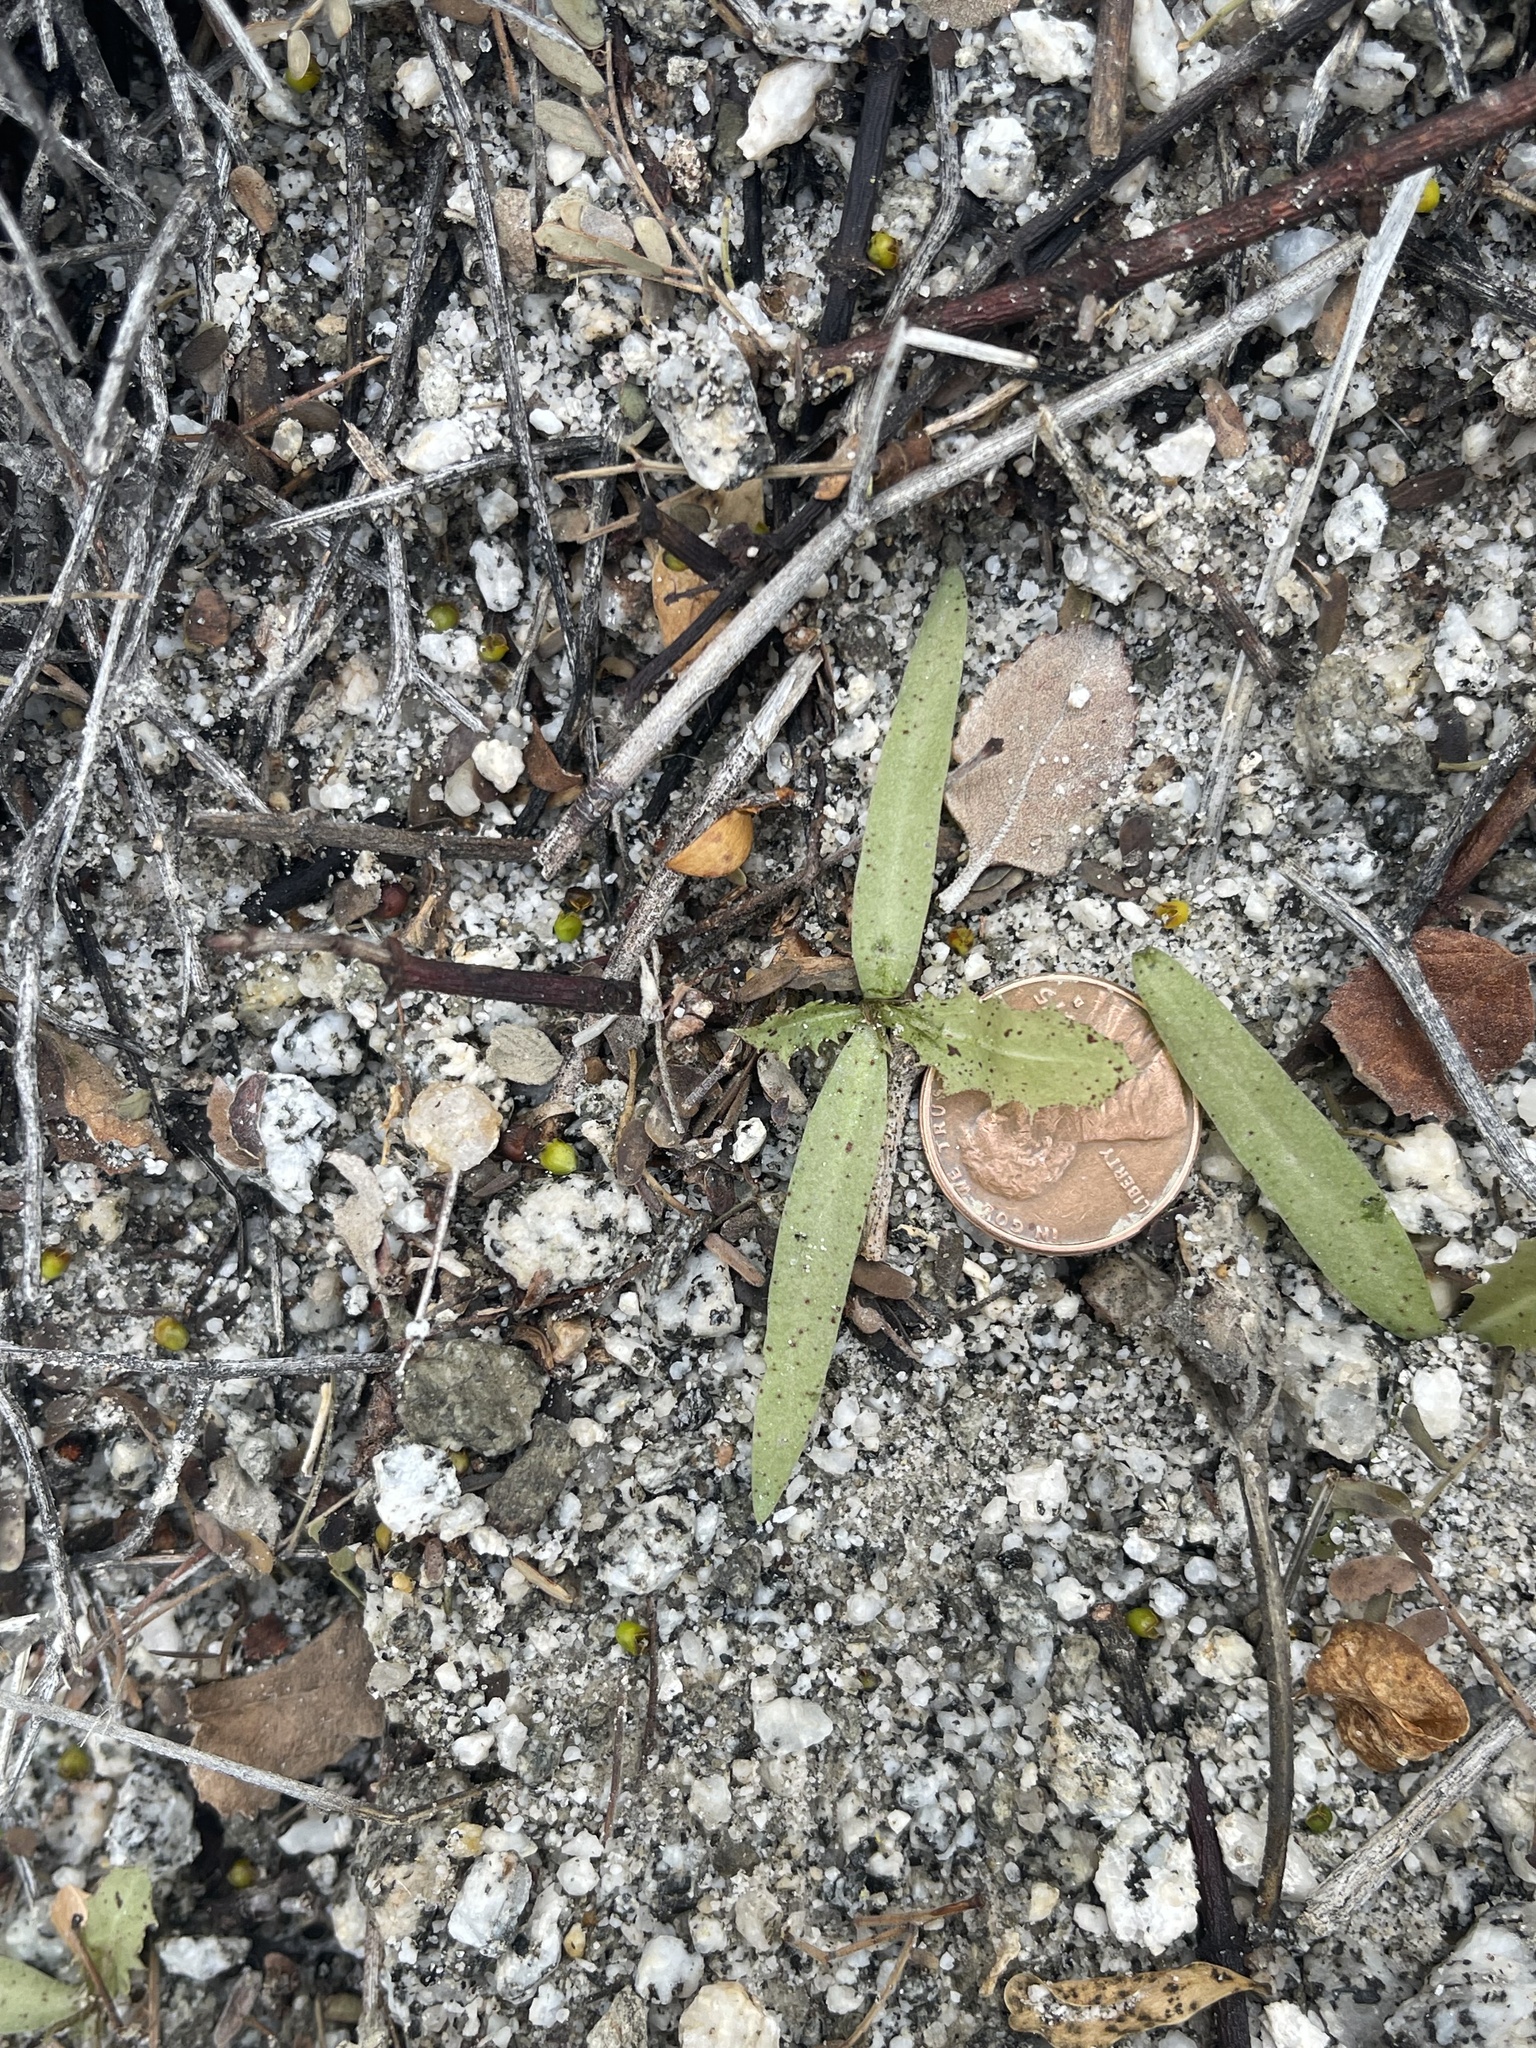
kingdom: Plantae
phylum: Tracheophyta
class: Magnoliopsida
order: Asterales
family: Asteraceae
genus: Rafinesquia
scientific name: Rafinesquia neomexicana
